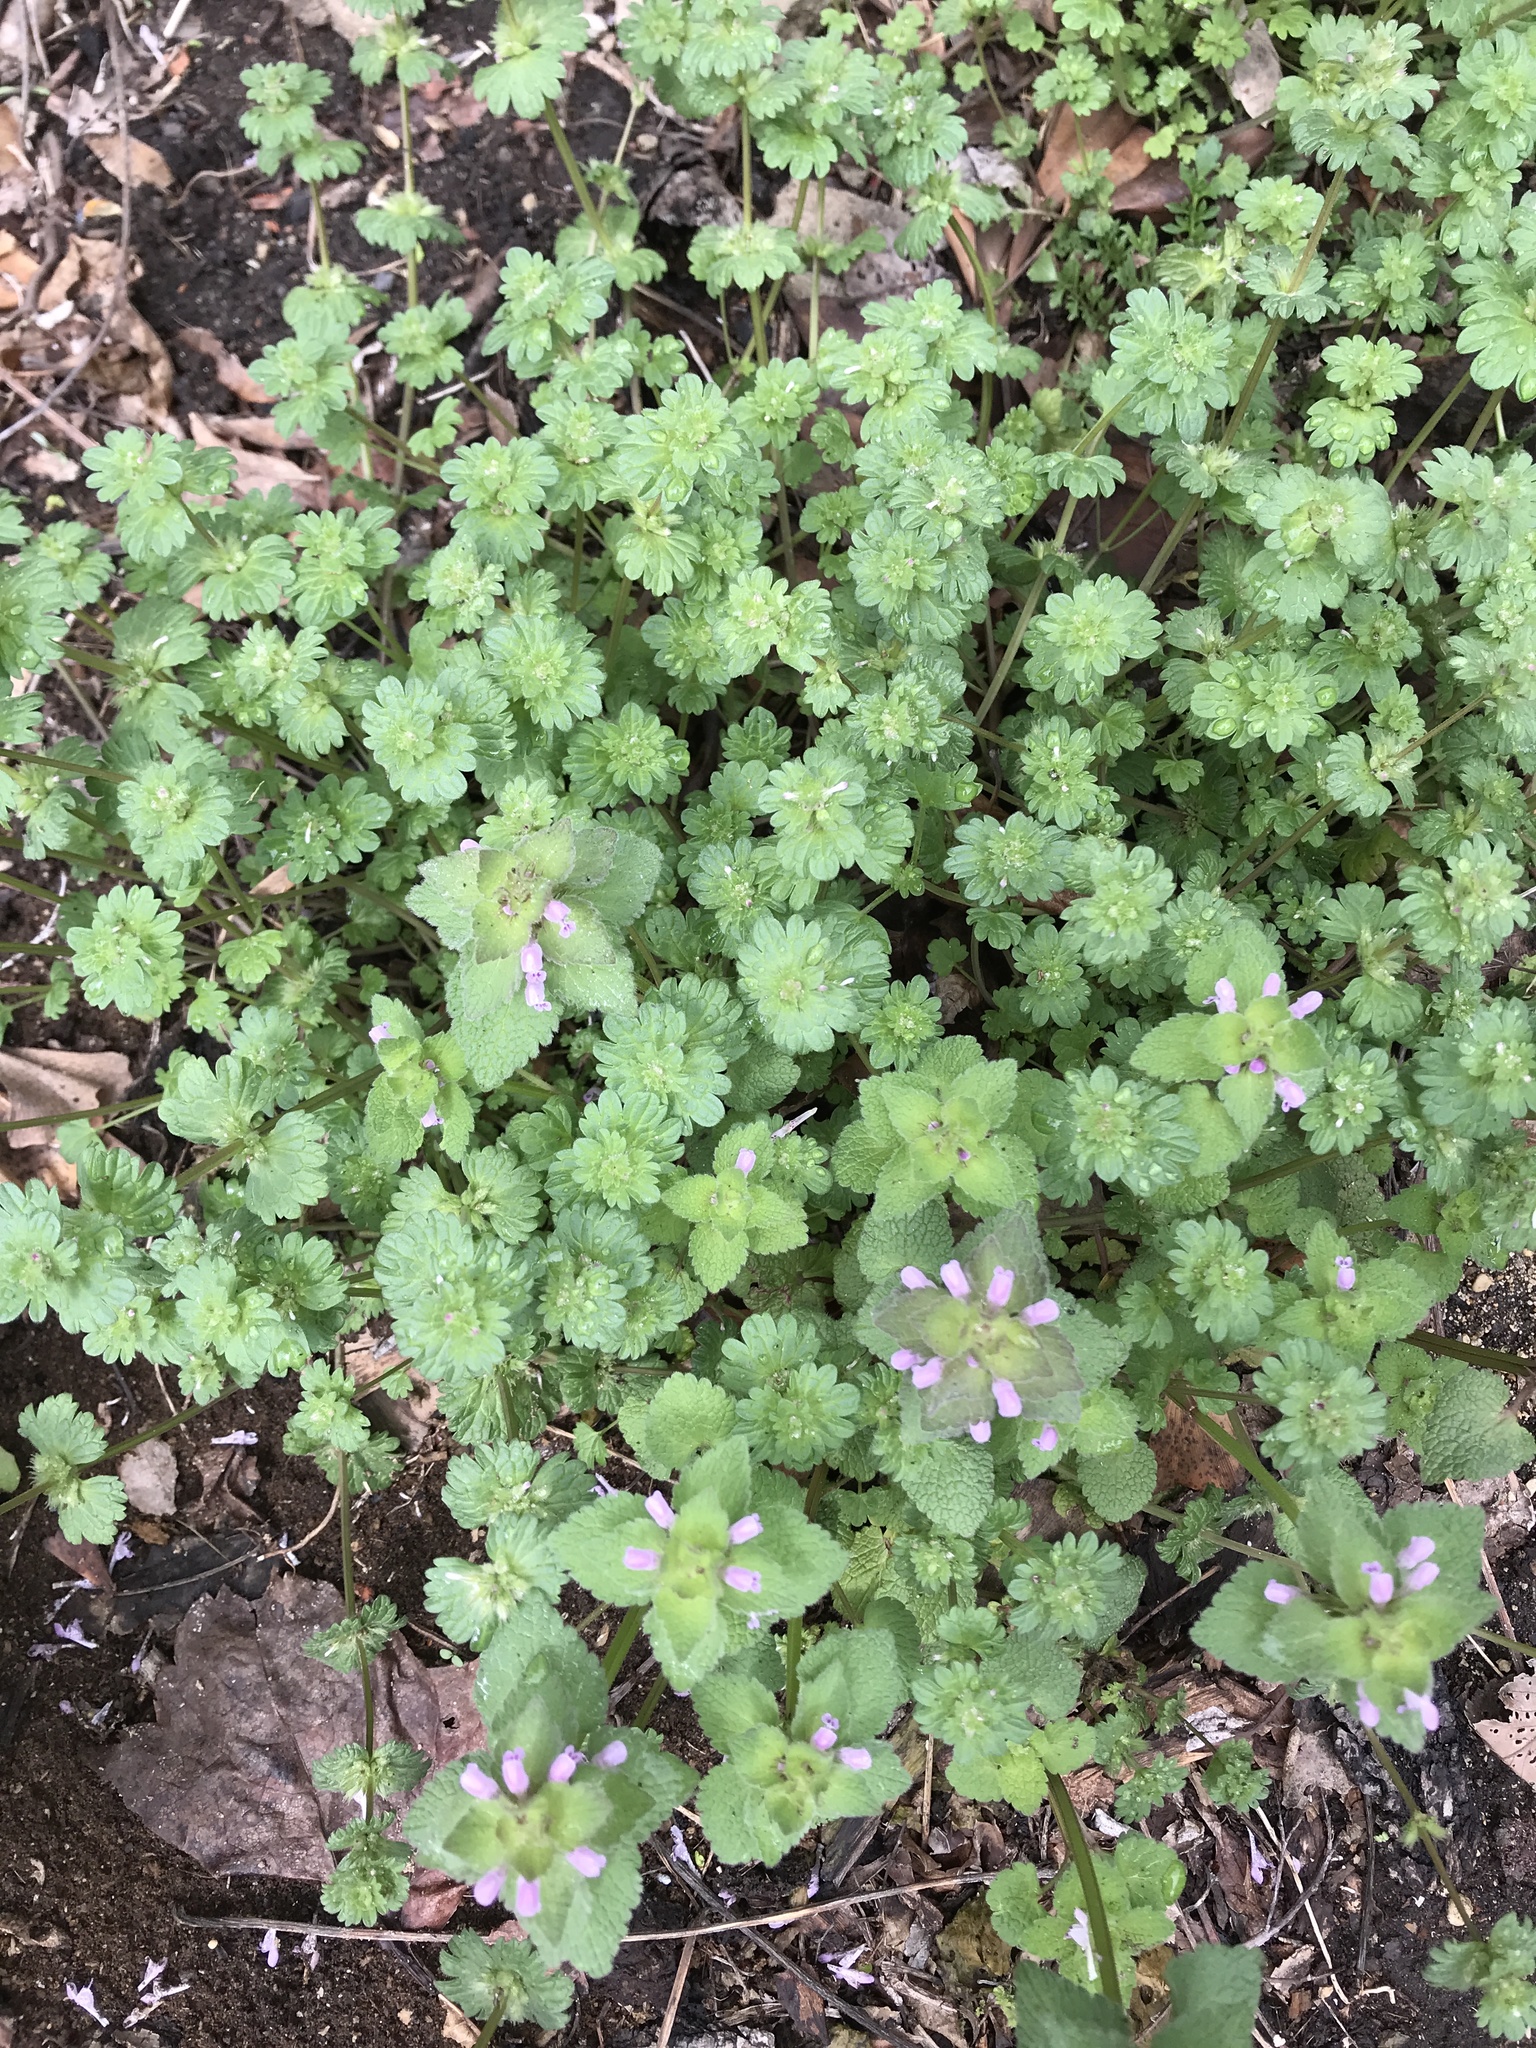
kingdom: Plantae
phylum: Tracheophyta
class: Magnoliopsida
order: Lamiales
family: Lamiaceae
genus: Lamium
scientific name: Lamium amplexicaule
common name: Henbit dead-nettle
